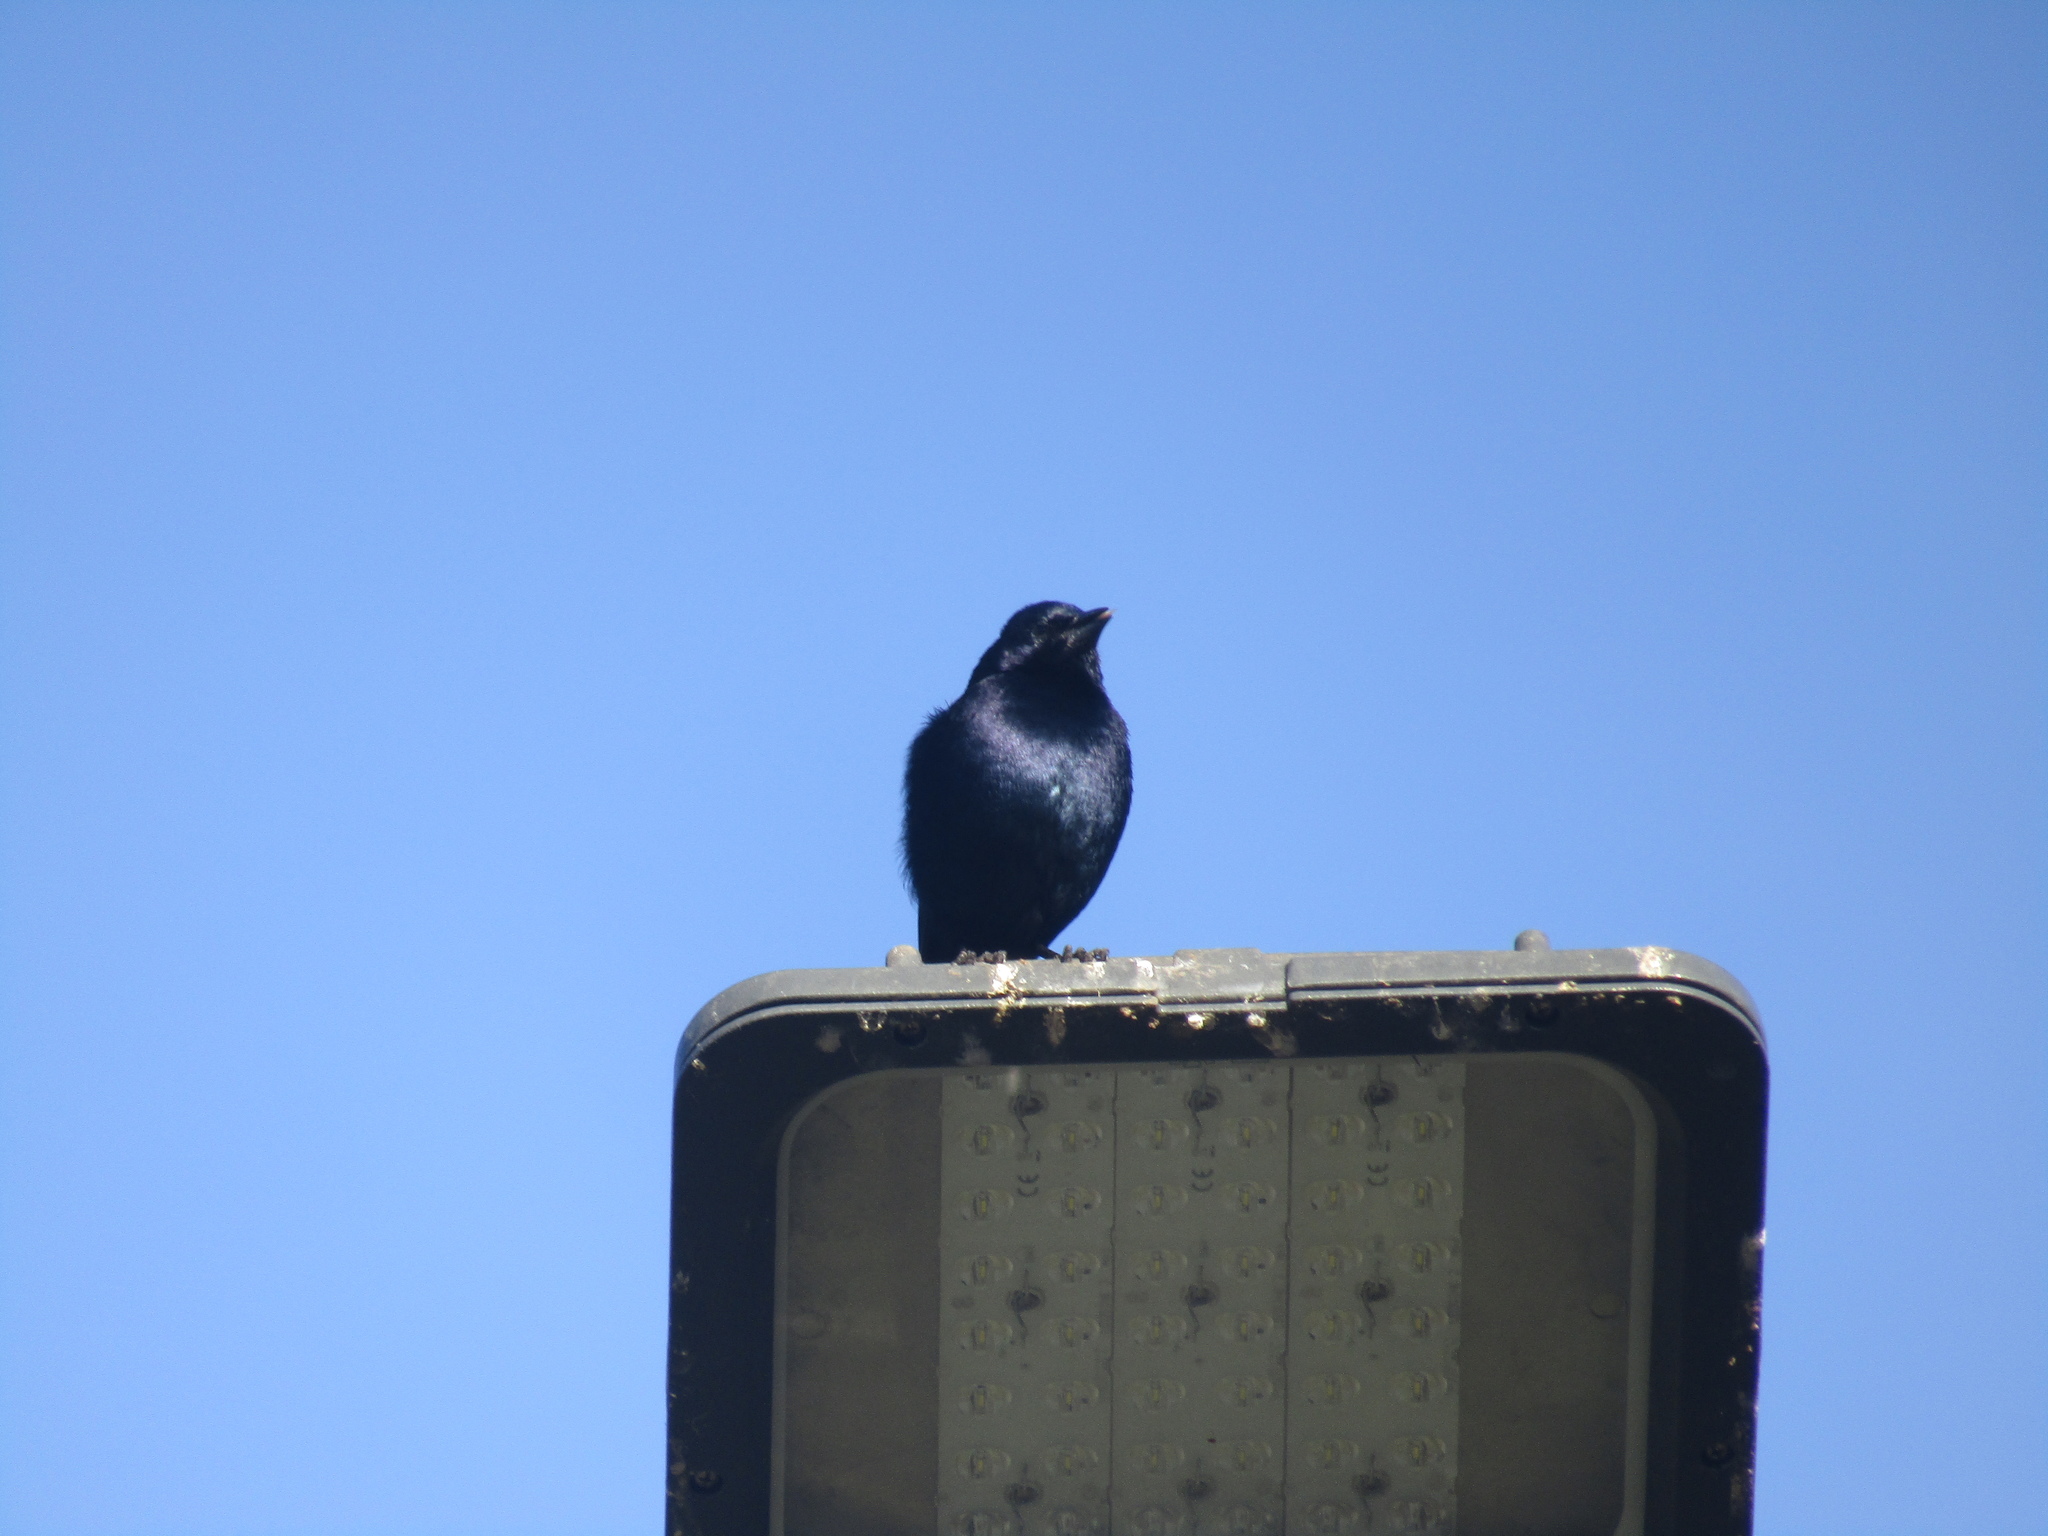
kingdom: Animalia
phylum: Chordata
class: Aves
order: Passeriformes
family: Icteridae
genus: Molothrus
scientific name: Molothrus bonariensis
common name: Shiny cowbird
